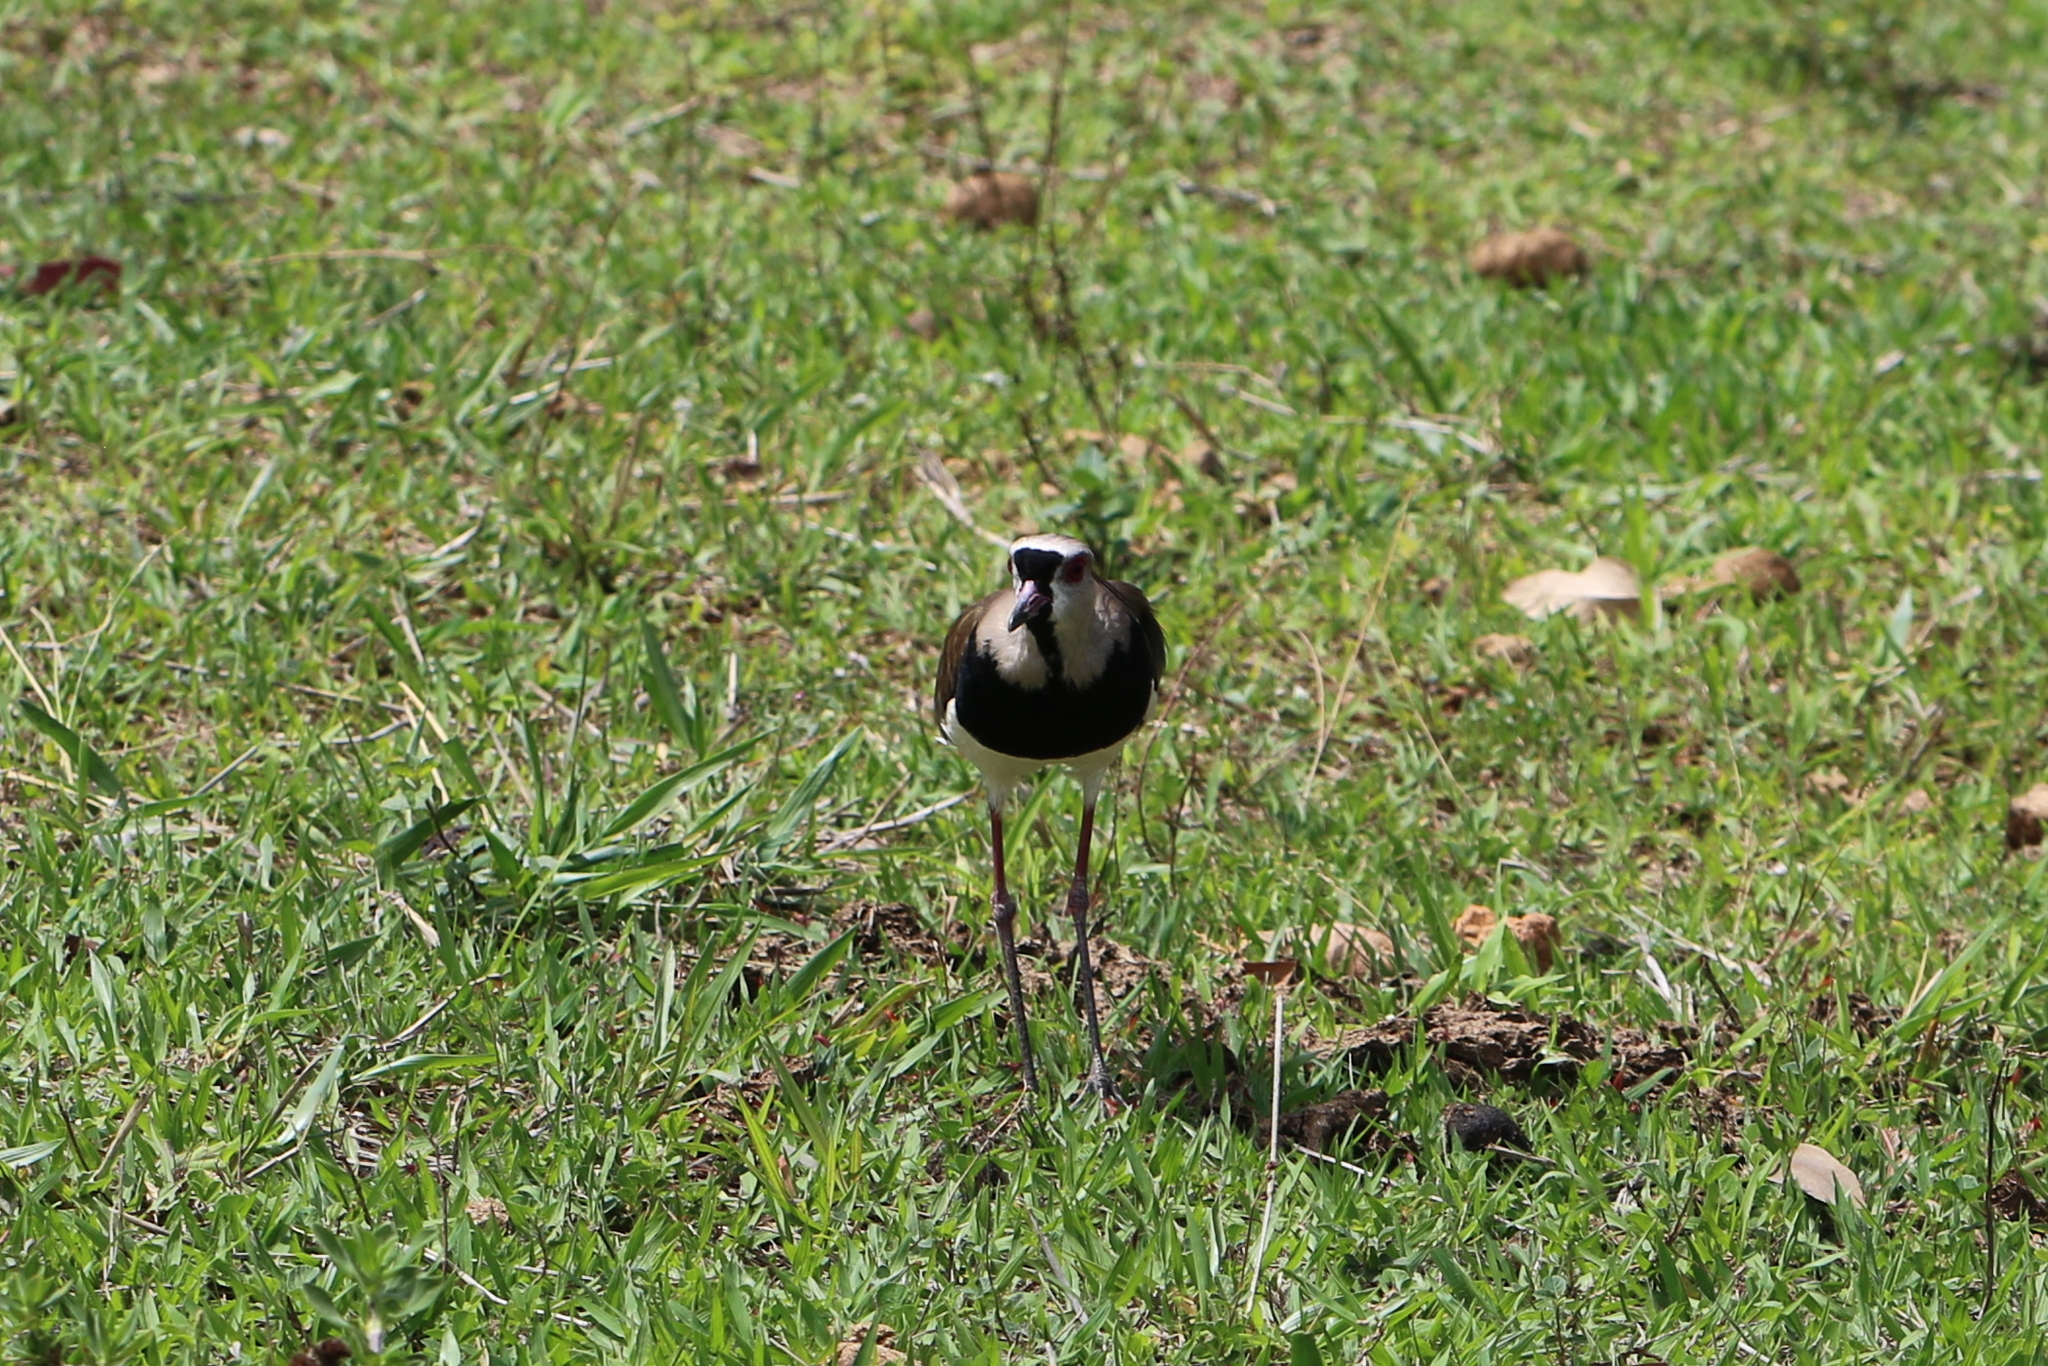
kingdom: Animalia
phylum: Chordata
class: Aves
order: Charadriiformes
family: Charadriidae
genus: Vanellus
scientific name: Vanellus chilensis
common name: Southern lapwing
